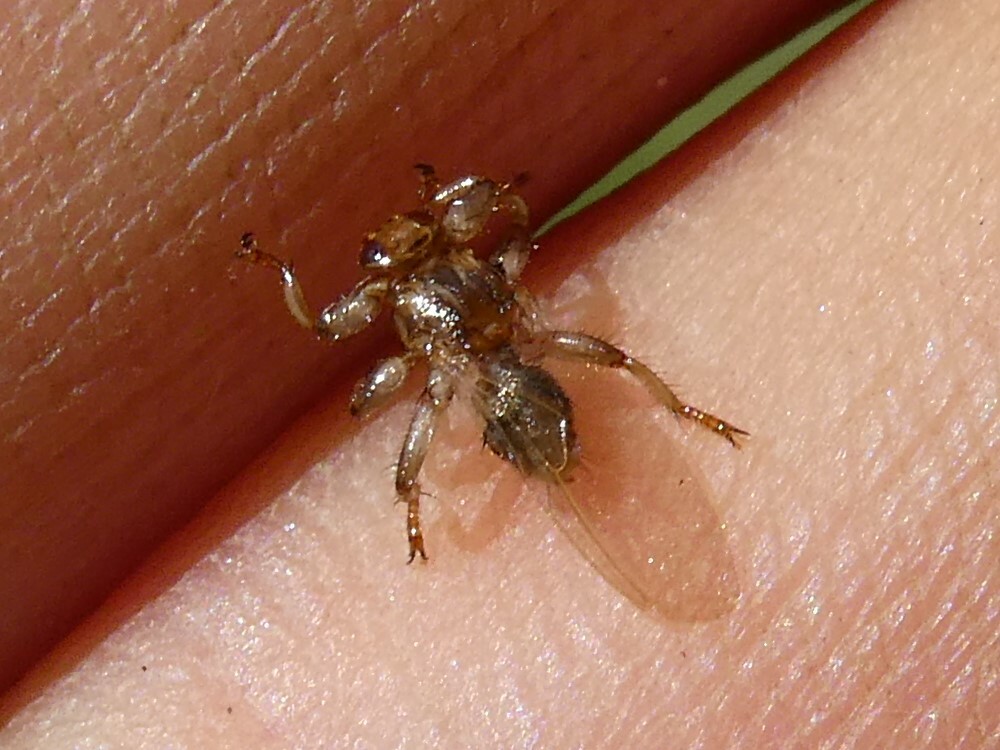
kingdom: Animalia
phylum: Arthropoda
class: Insecta
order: Diptera
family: Hippoboscidae
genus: Lipoptena
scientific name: Lipoptena cervi
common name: Deer ked
